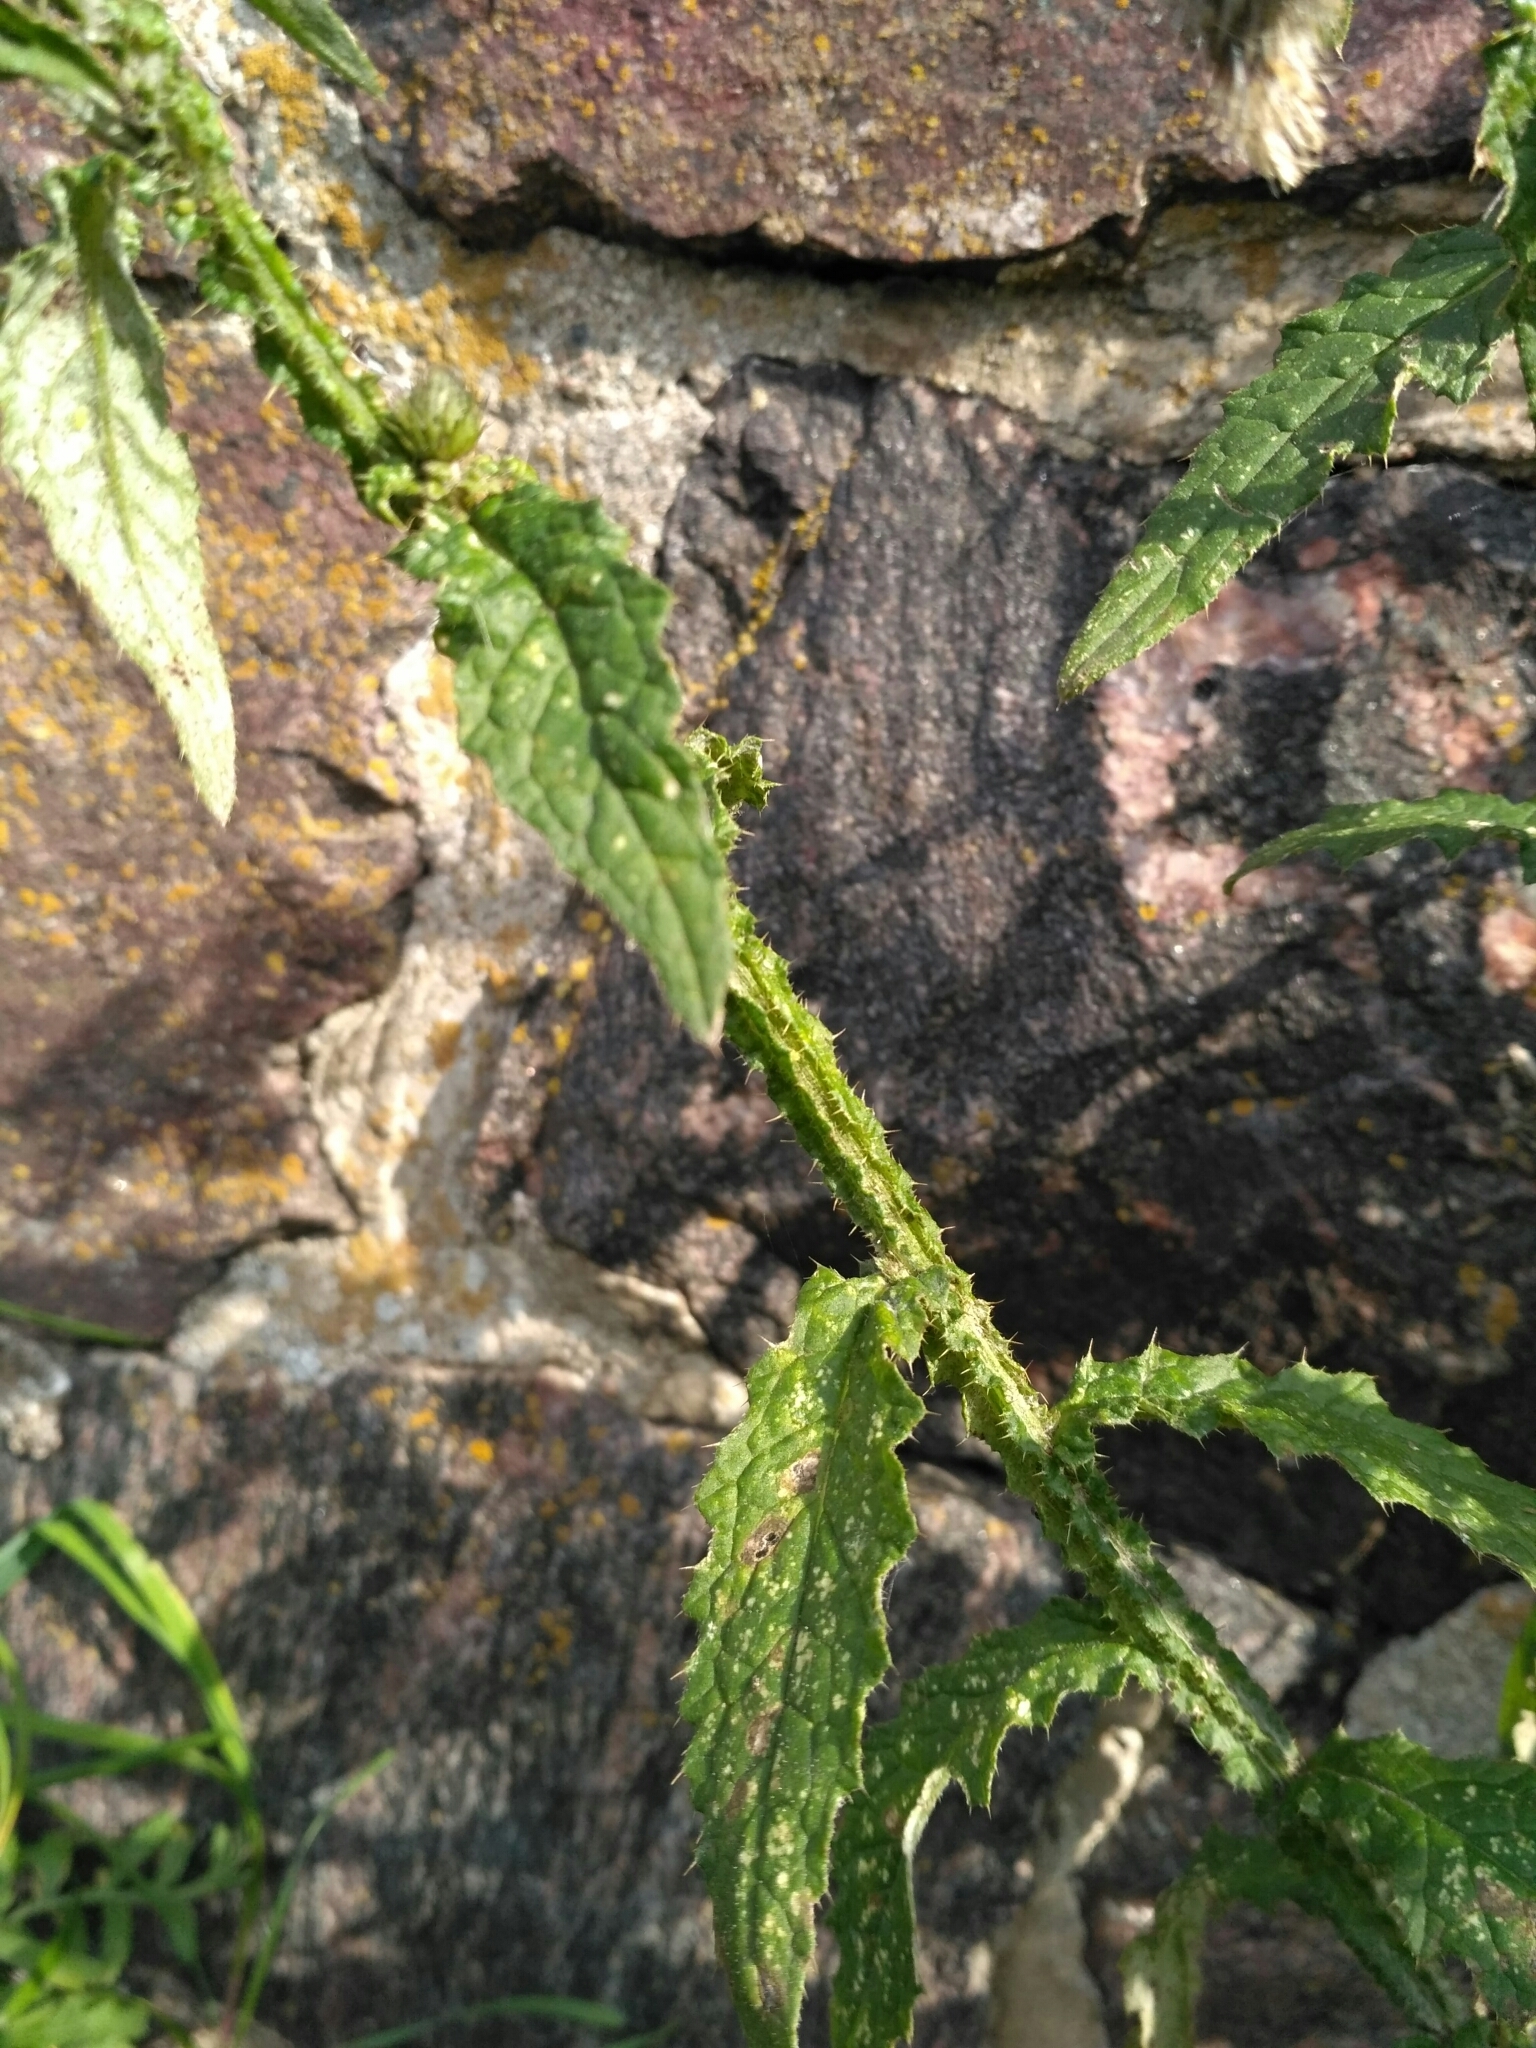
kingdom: Plantae
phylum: Tracheophyta
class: Magnoliopsida
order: Asterales
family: Asteraceae
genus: Carduus
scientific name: Carduus crispus
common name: Welted thistle
